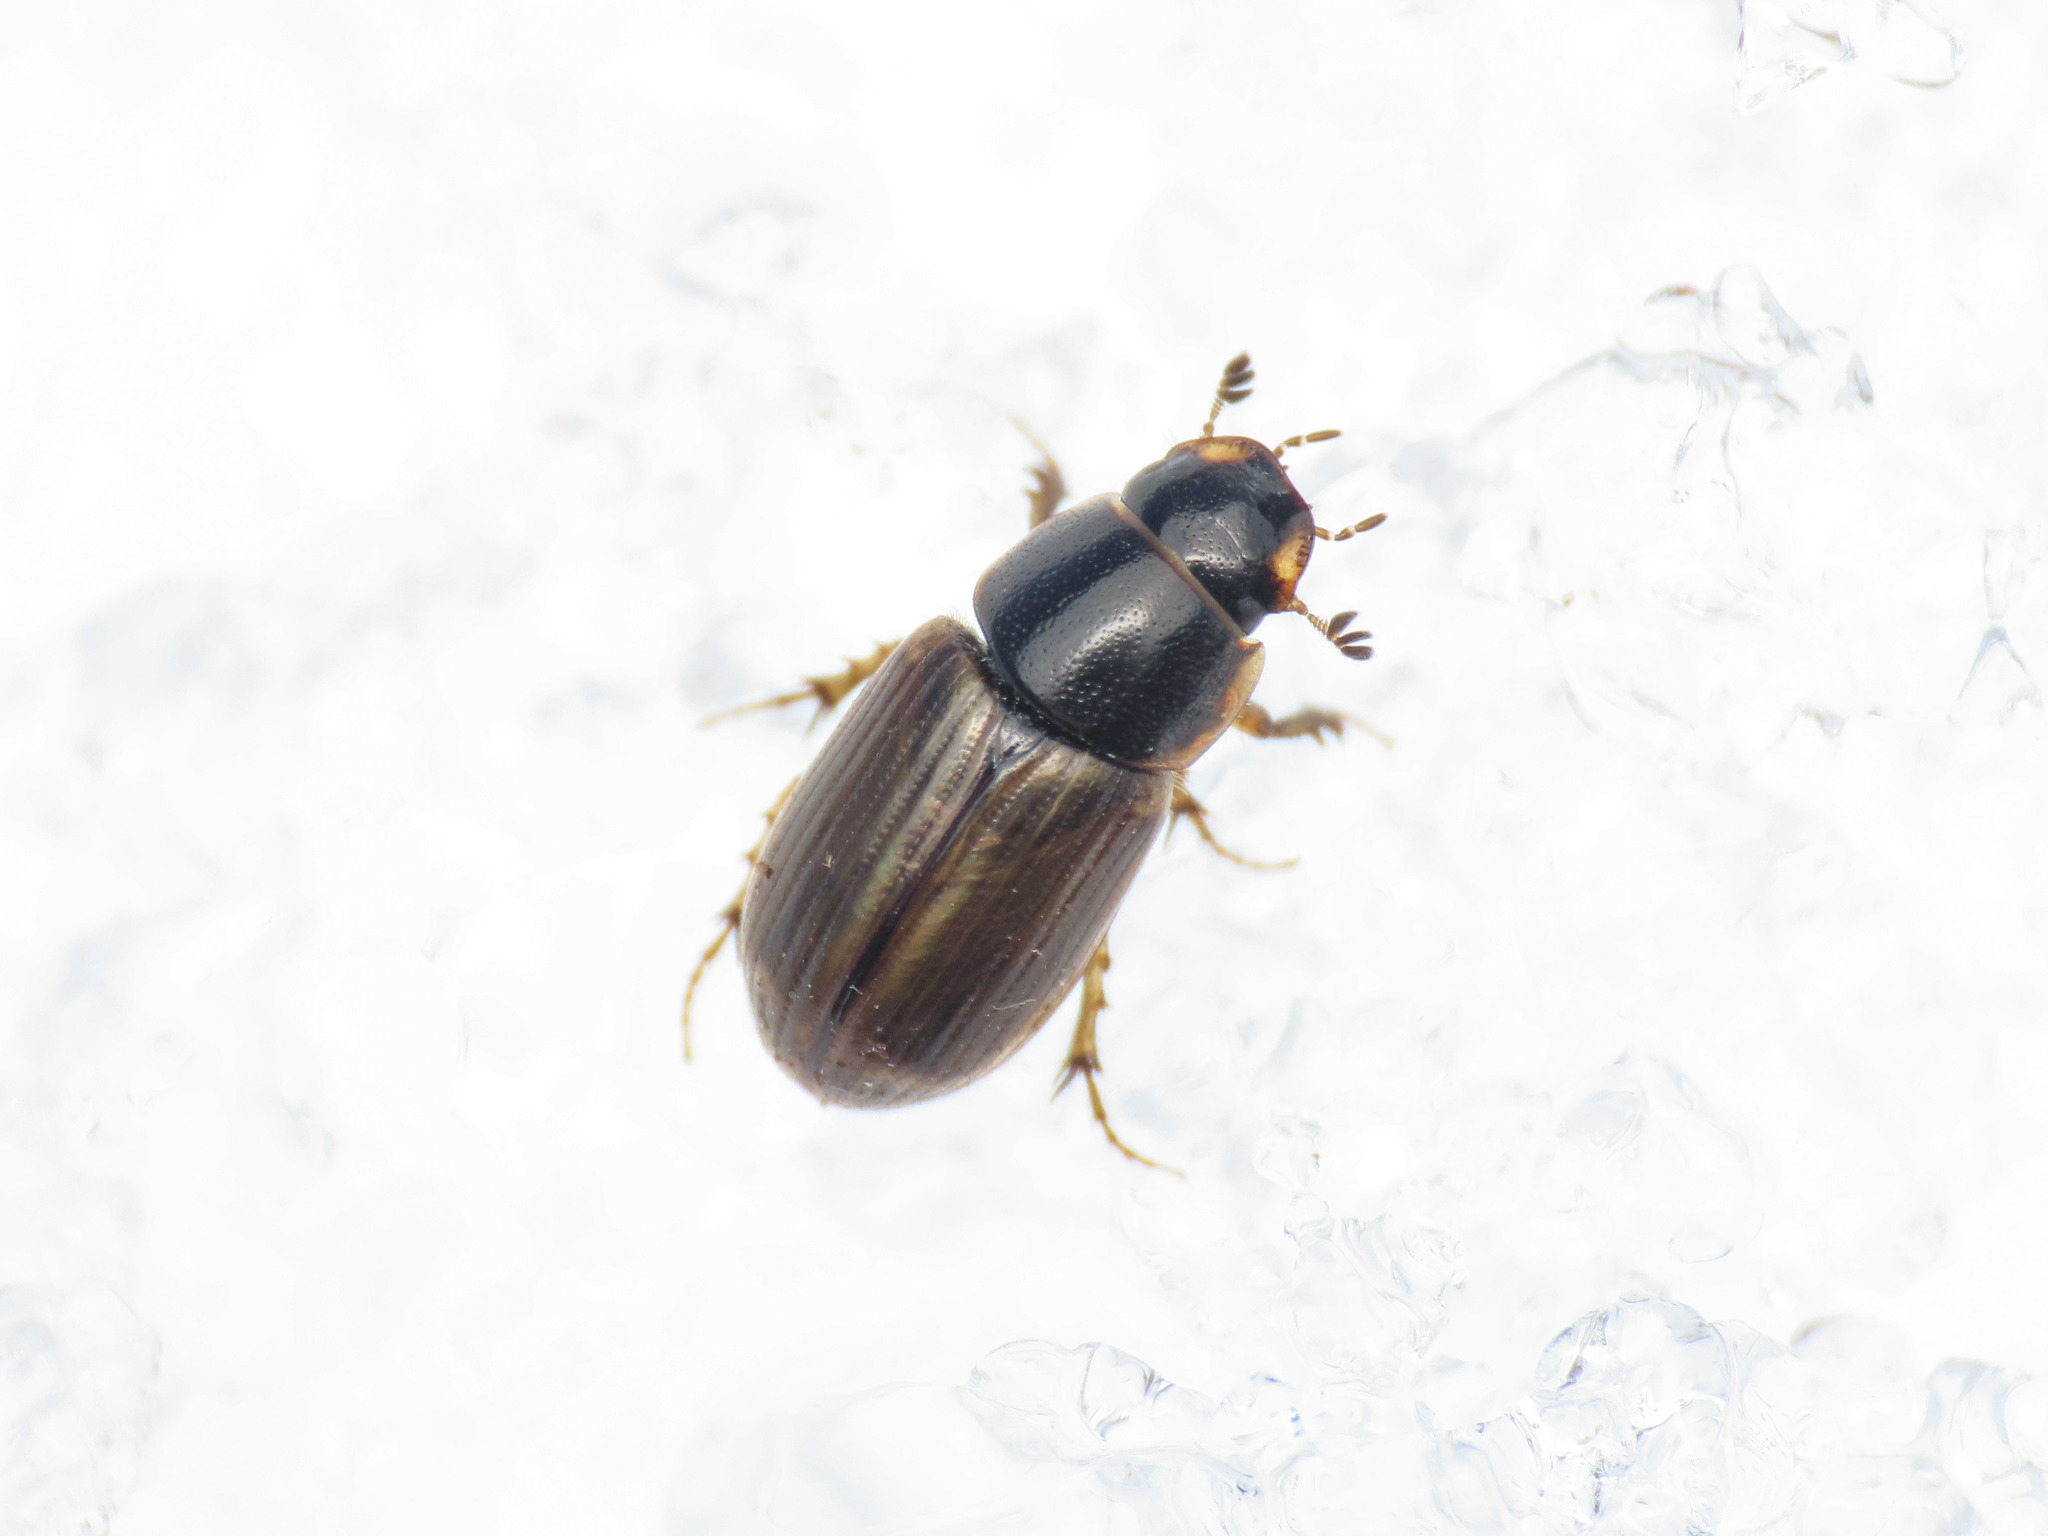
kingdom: Animalia
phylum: Arthropoda
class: Insecta
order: Coleoptera
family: Scarabaeidae
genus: Melinopterus
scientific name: Melinopterus consputus
